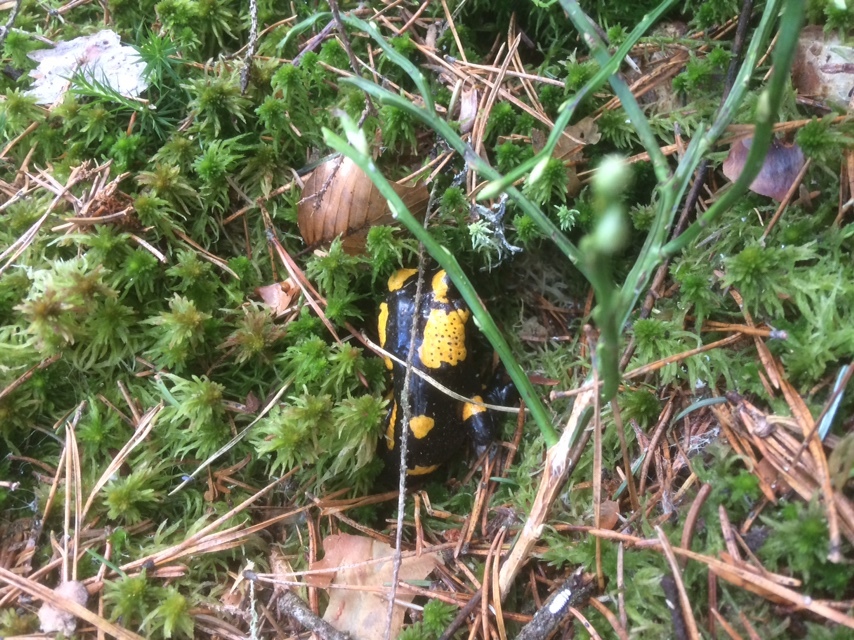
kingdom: Animalia
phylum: Chordata
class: Amphibia
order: Caudata
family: Salamandridae
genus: Salamandra
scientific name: Salamandra salamandra
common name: Fire salamander
